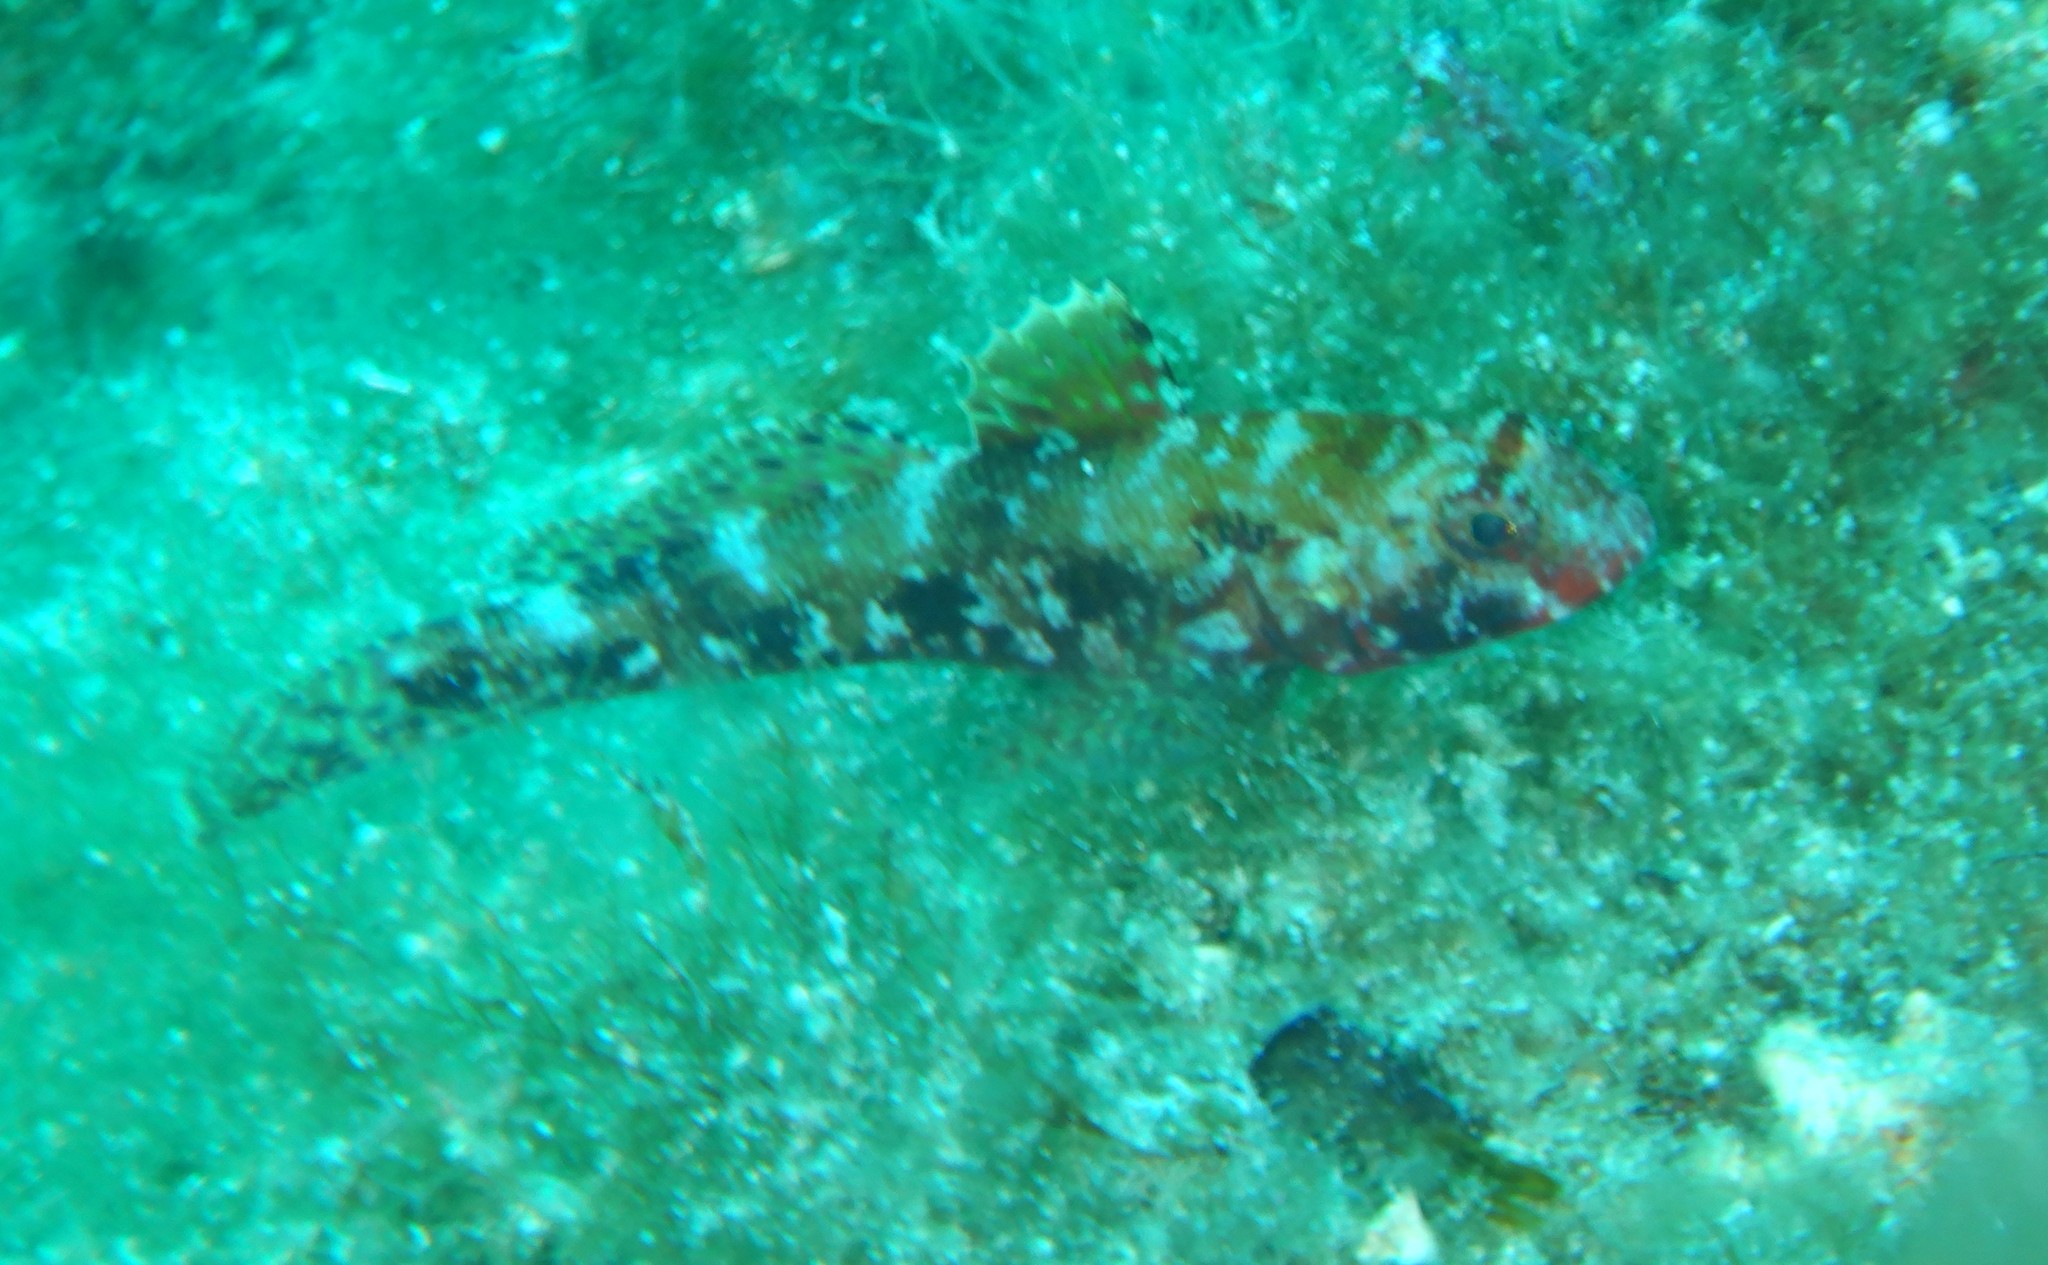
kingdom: Animalia
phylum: Chordata
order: Perciformes
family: Gobiidae
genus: Gobius
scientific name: Gobius cruentatus
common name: Red-mouthed goby
